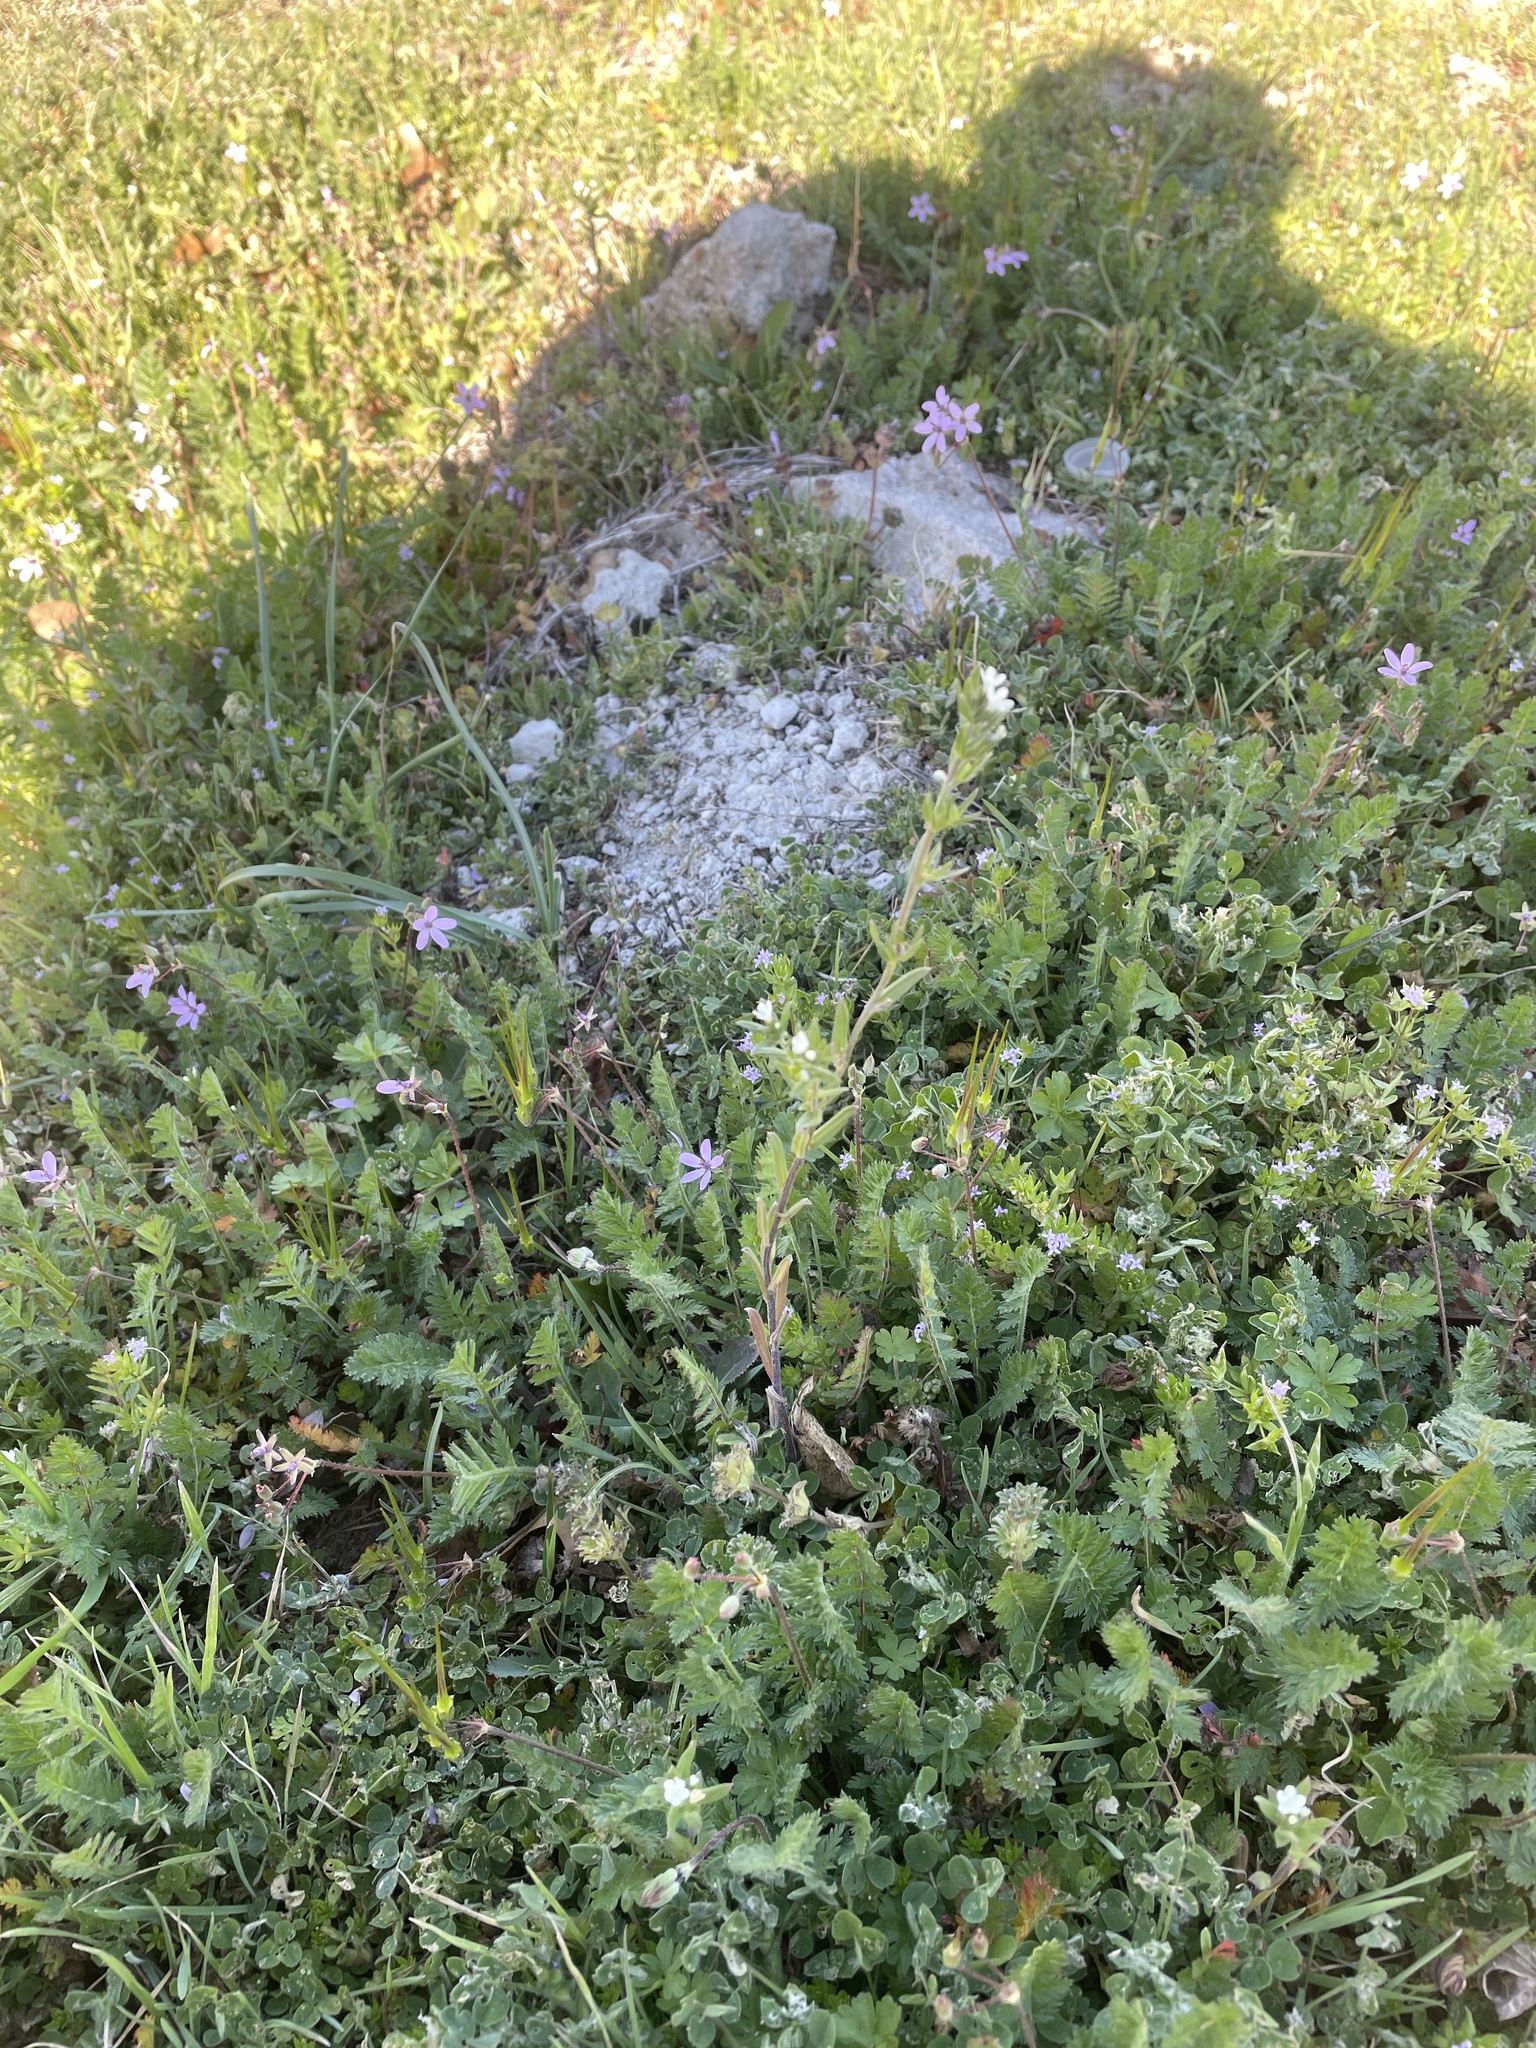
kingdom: Plantae
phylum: Tracheophyta
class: Magnoliopsida
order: Boraginales
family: Boraginaceae
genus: Buglossoides
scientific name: Buglossoides arvensis
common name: Corn gromwell
